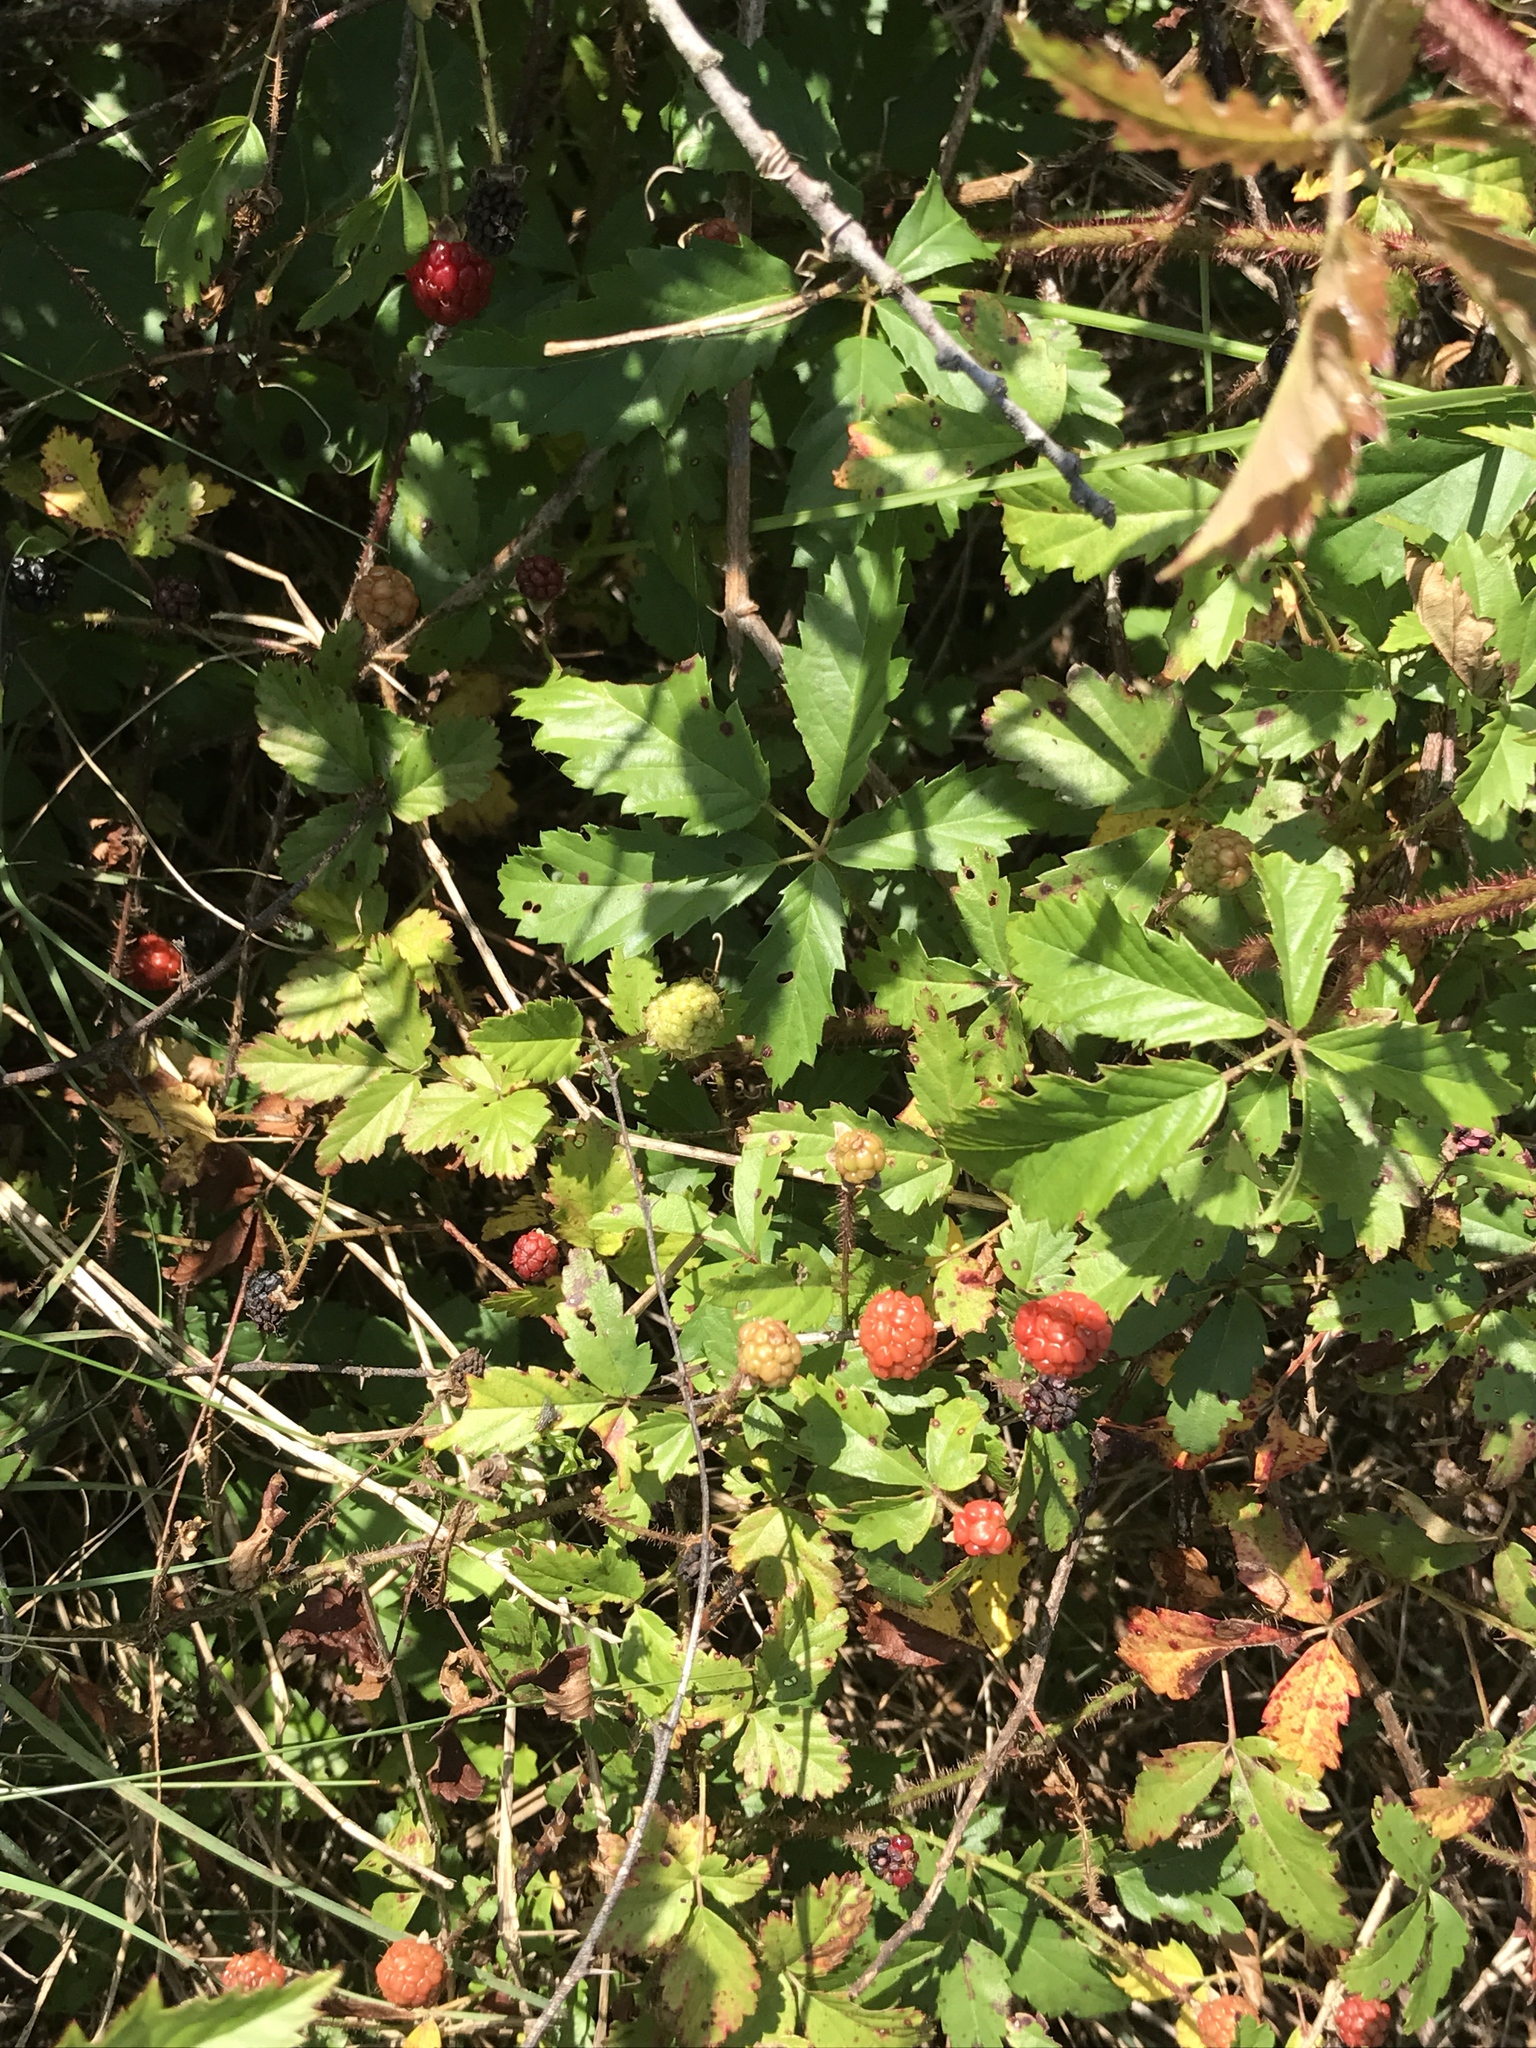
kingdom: Plantae
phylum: Tracheophyta
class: Magnoliopsida
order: Rosales
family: Rosaceae
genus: Rubus
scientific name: Rubus trivialis
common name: Southern dewberry
